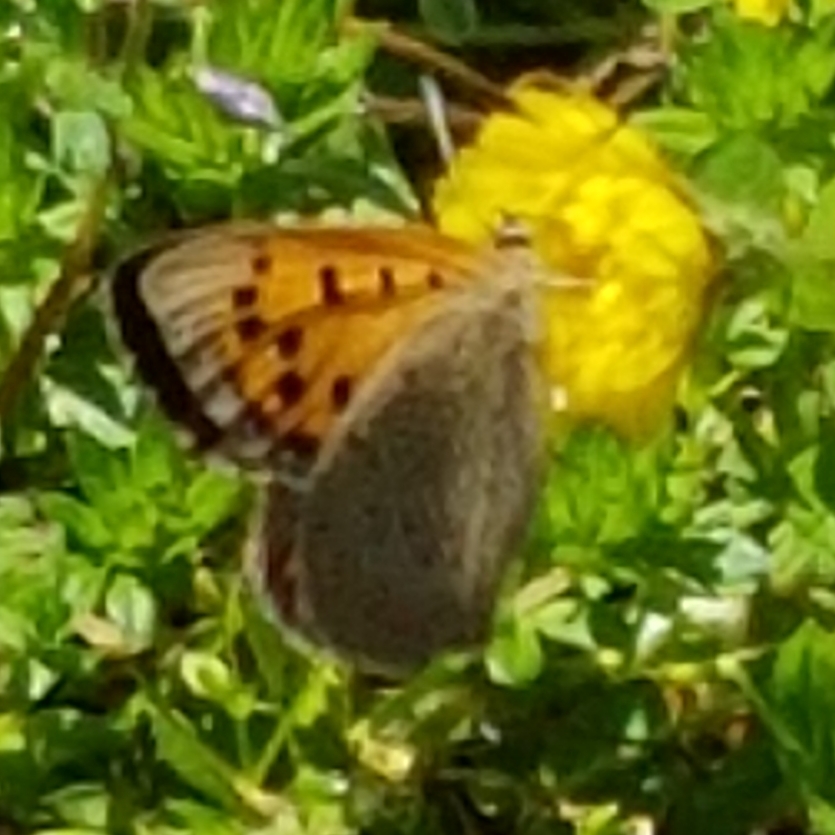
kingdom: Animalia
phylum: Arthropoda
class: Insecta
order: Lepidoptera
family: Lycaenidae
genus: Lycaena
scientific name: Lycaena phlaeas
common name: Small copper
